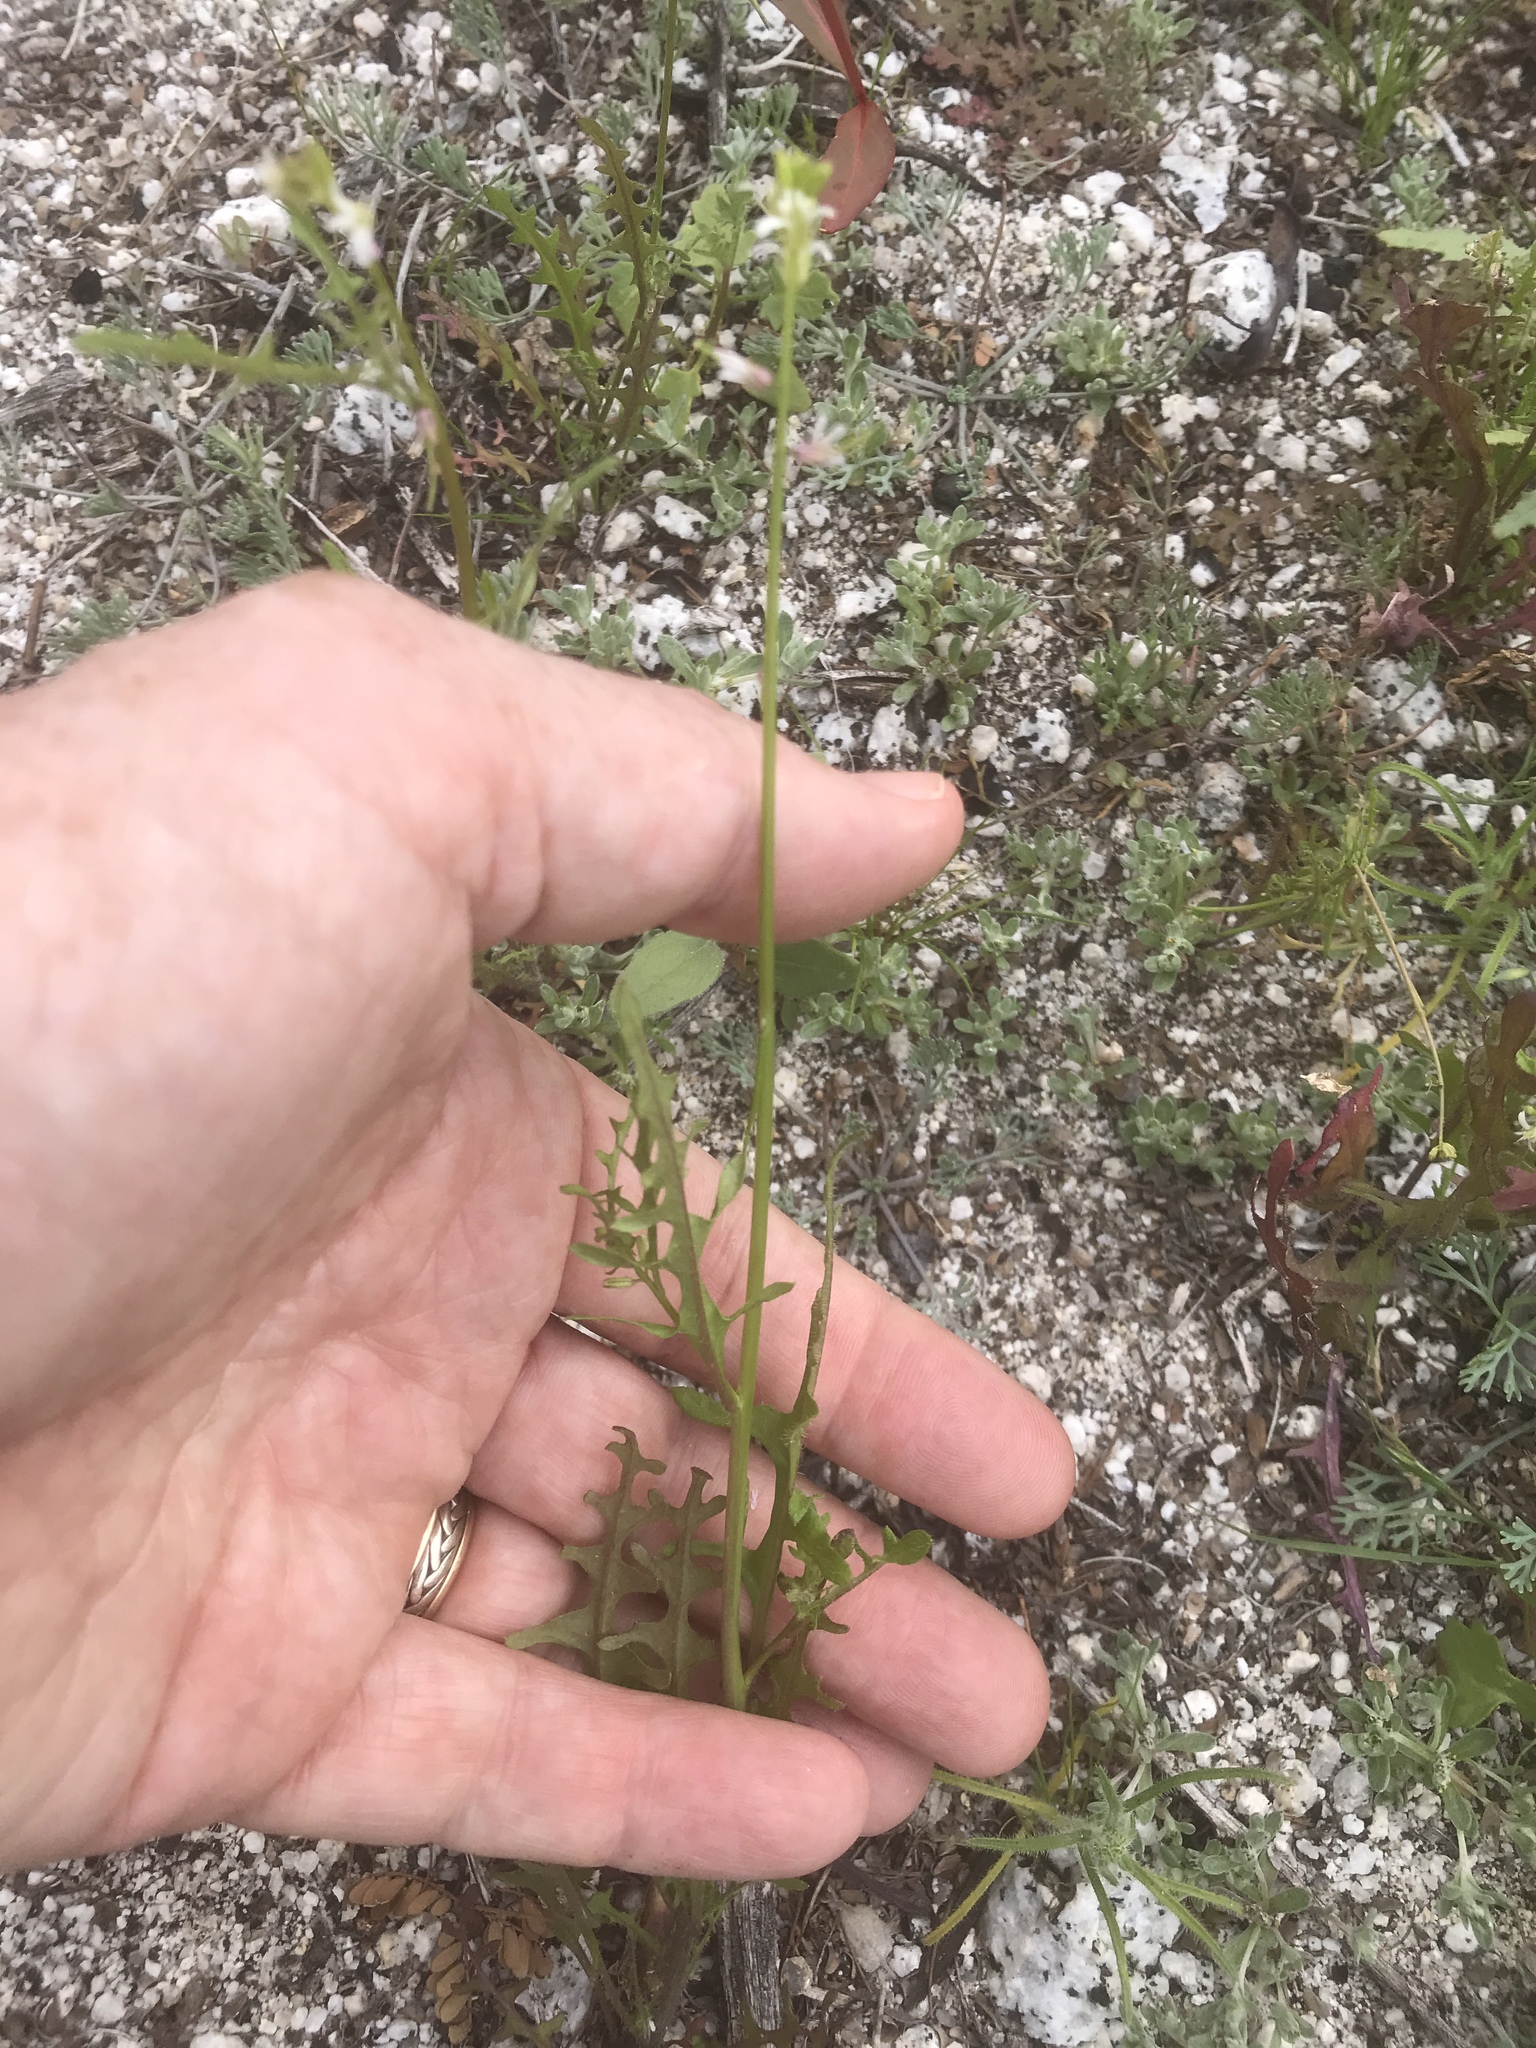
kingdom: Plantae
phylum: Tracheophyta
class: Magnoliopsida
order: Brassicales
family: Brassicaceae
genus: Streptanthus
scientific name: Streptanthus lasiophyllus
